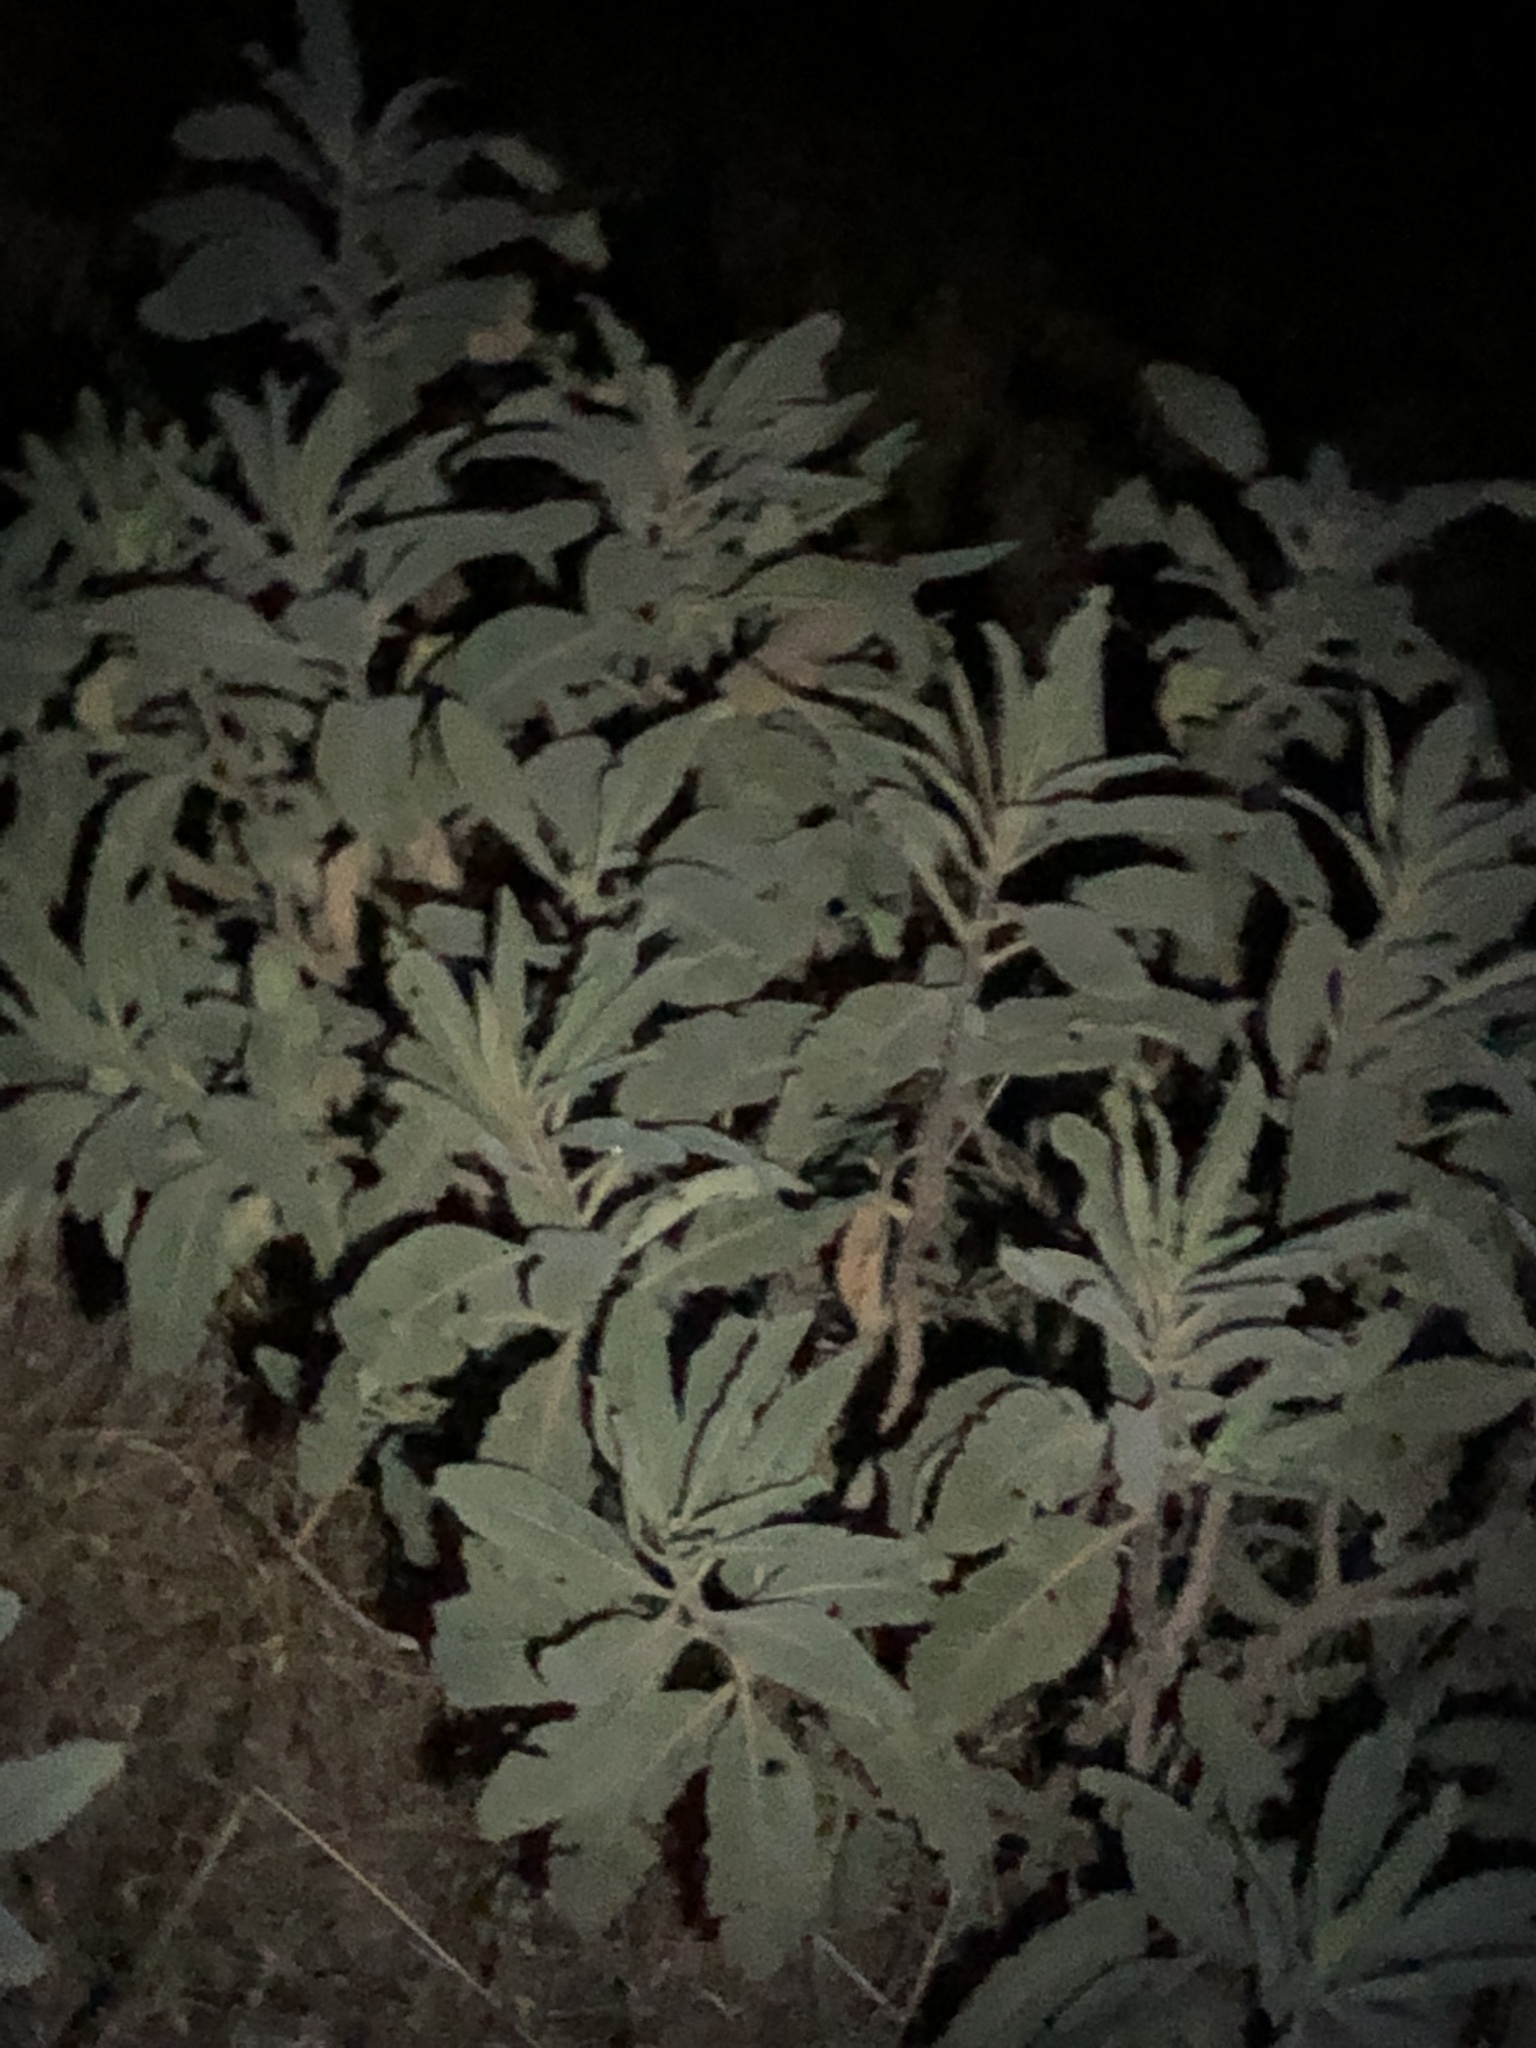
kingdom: Plantae
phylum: Tracheophyta
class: Magnoliopsida
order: Boraginales
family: Namaceae
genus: Eriodictyon
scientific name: Eriodictyon crassifolium
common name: Thick-leaf yerba-santa
